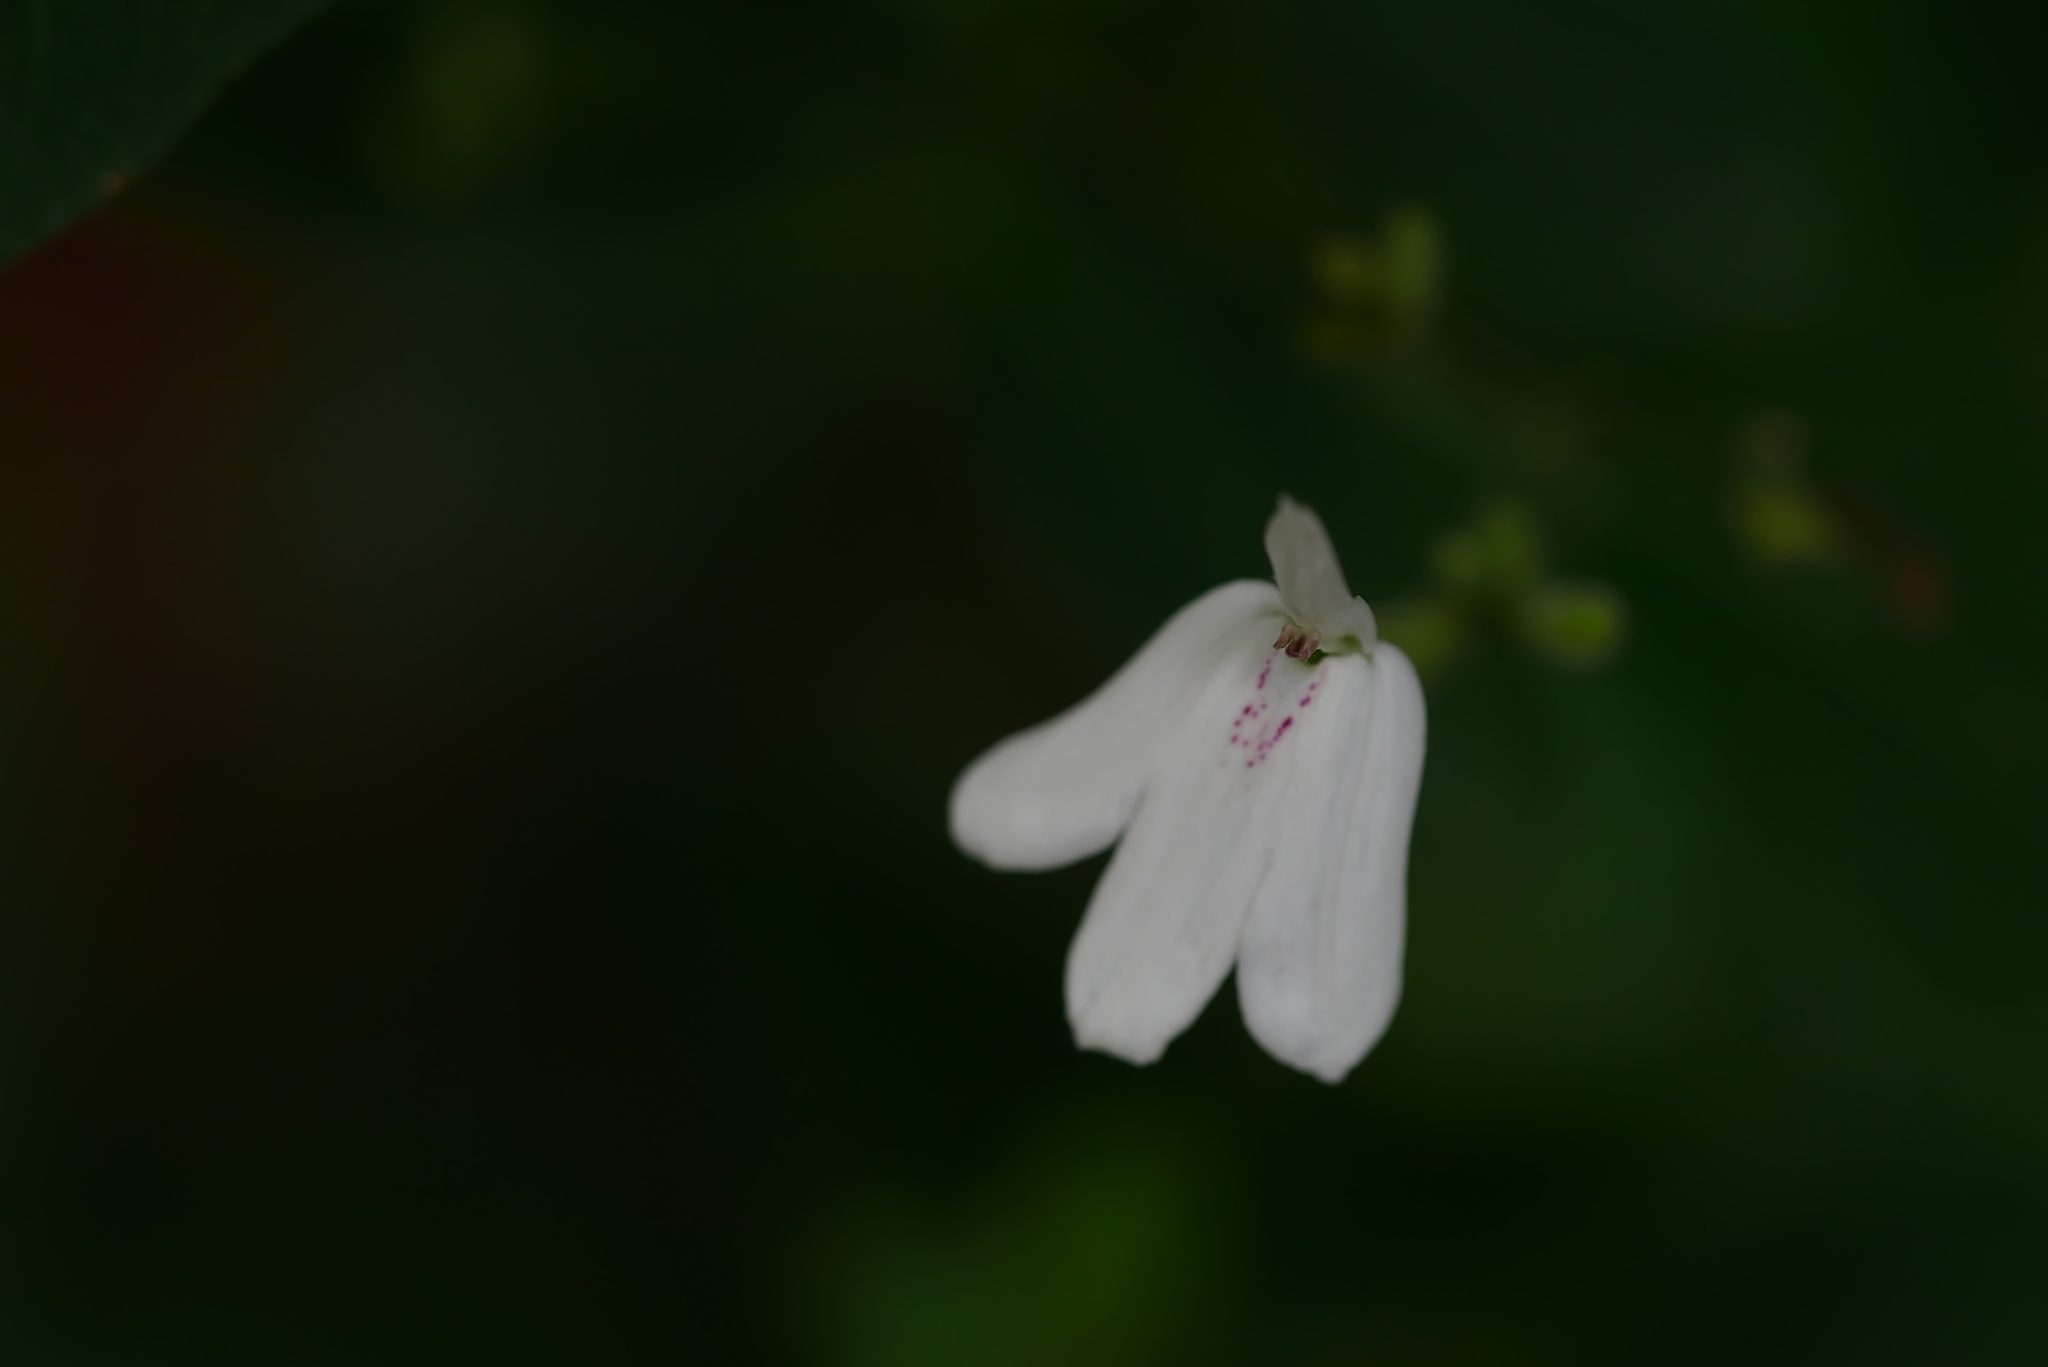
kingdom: Plantae
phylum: Tracheophyta
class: Magnoliopsida
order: Lamiales
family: Acanthaceae
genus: Rhinacanthus
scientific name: Rhinacanthus nasutus
